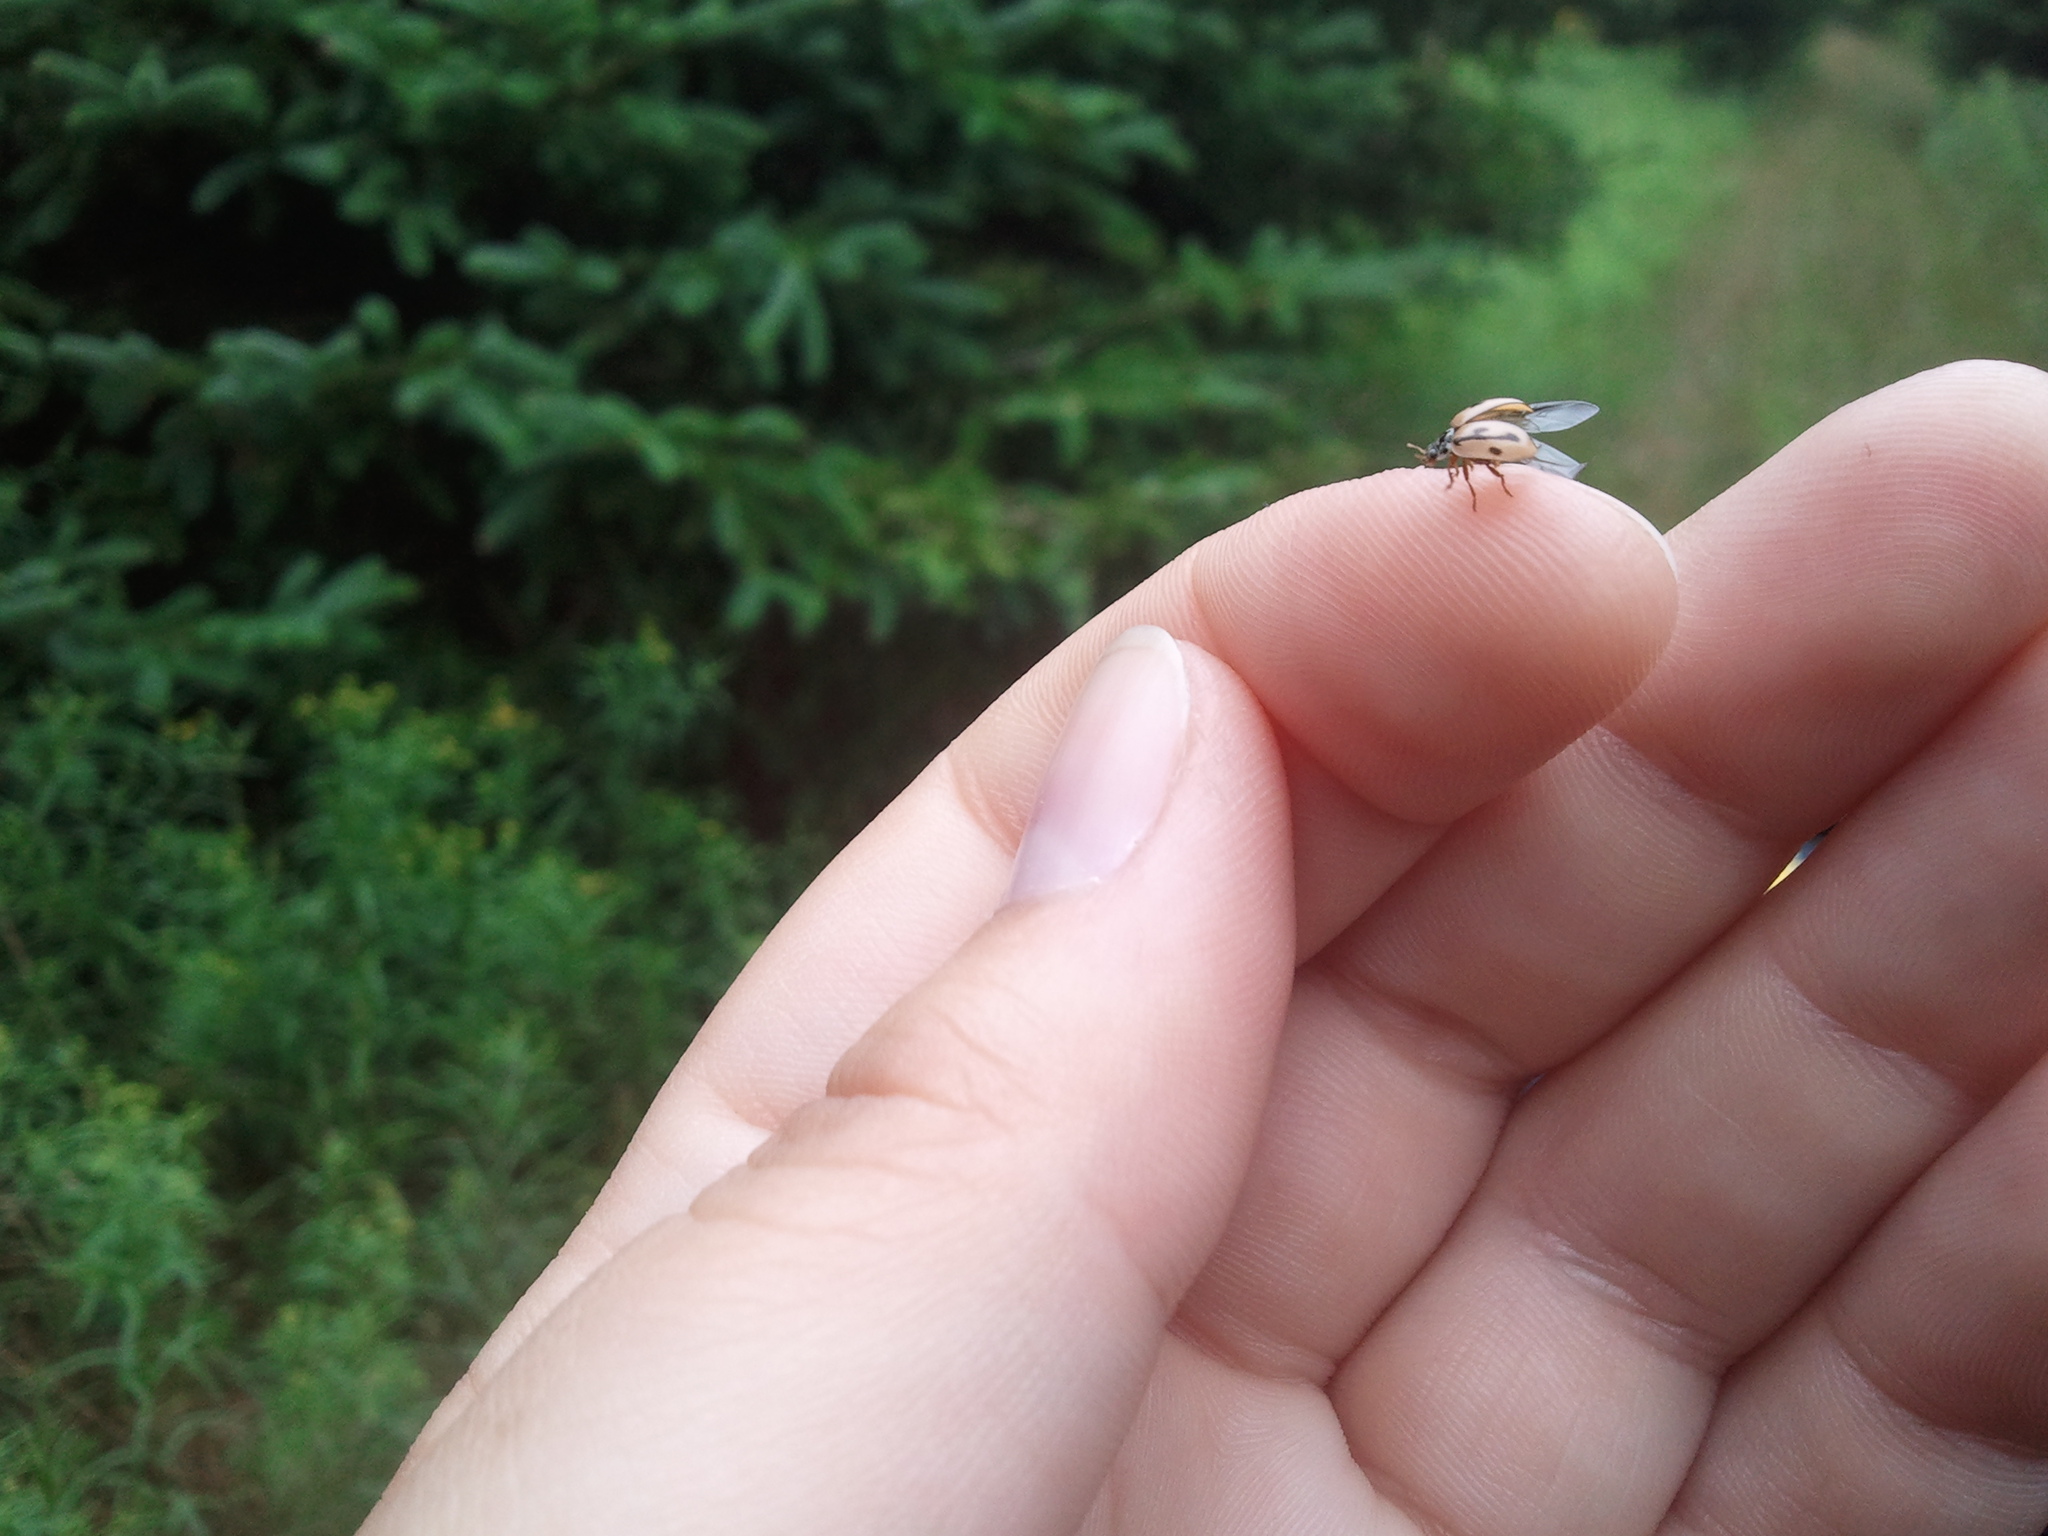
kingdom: Animalia
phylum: Arthropoda
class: Insecta
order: Coleoptera
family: Coccinellidae
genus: Mulsantina
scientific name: Mulsantina hudsonica
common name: Hudsonian ladybird
